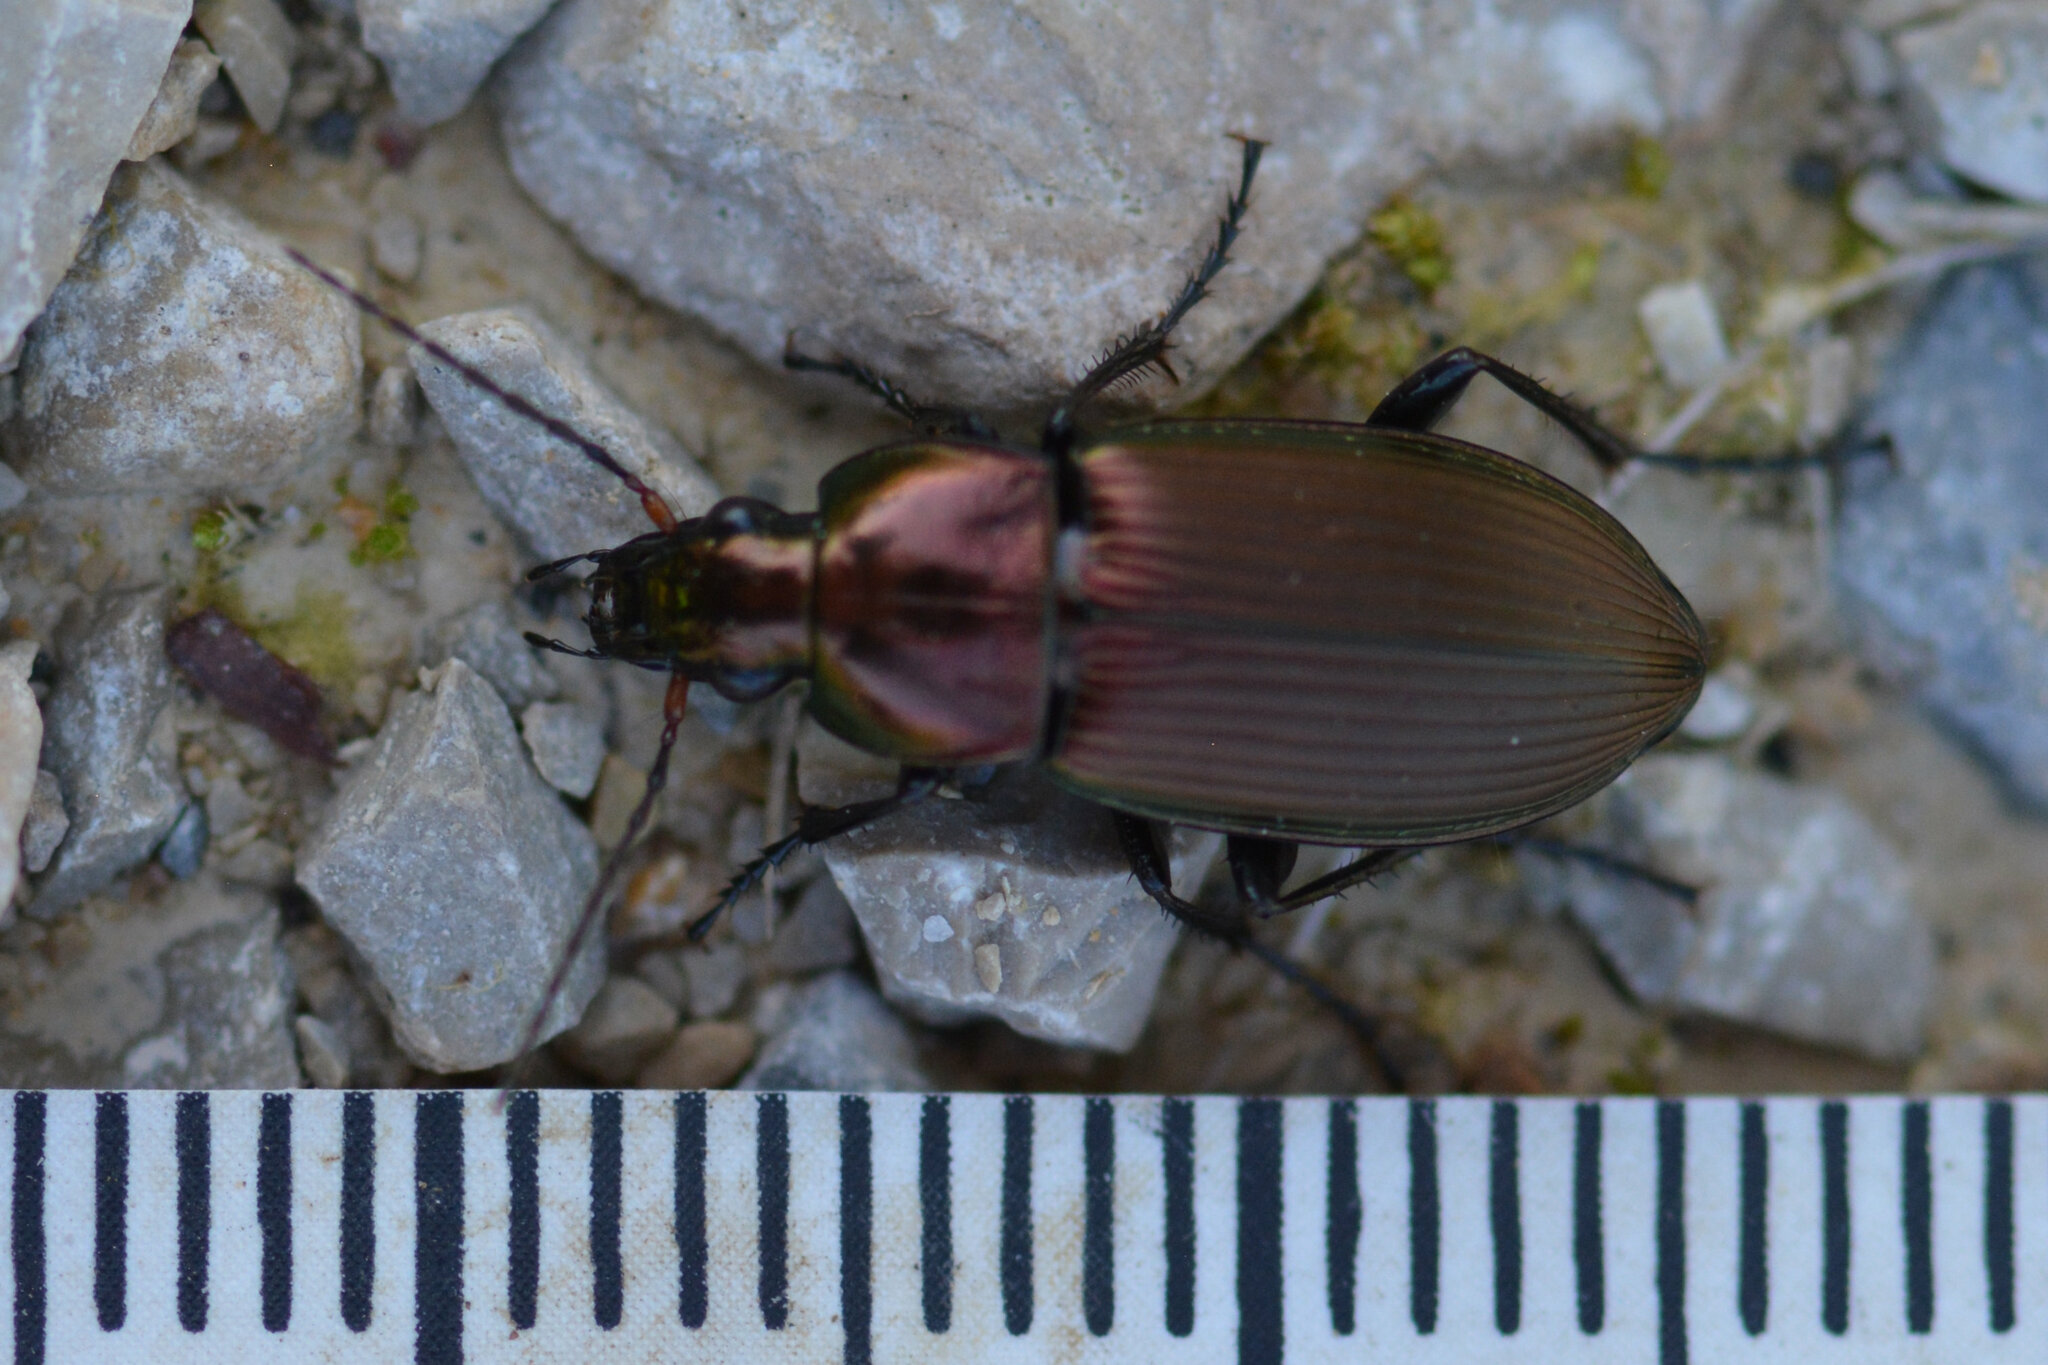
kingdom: Animalia
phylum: Arthropoda
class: Insecta
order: Coleoptera
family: Carabidae
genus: Poecilus
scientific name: Poecilus cupreus
